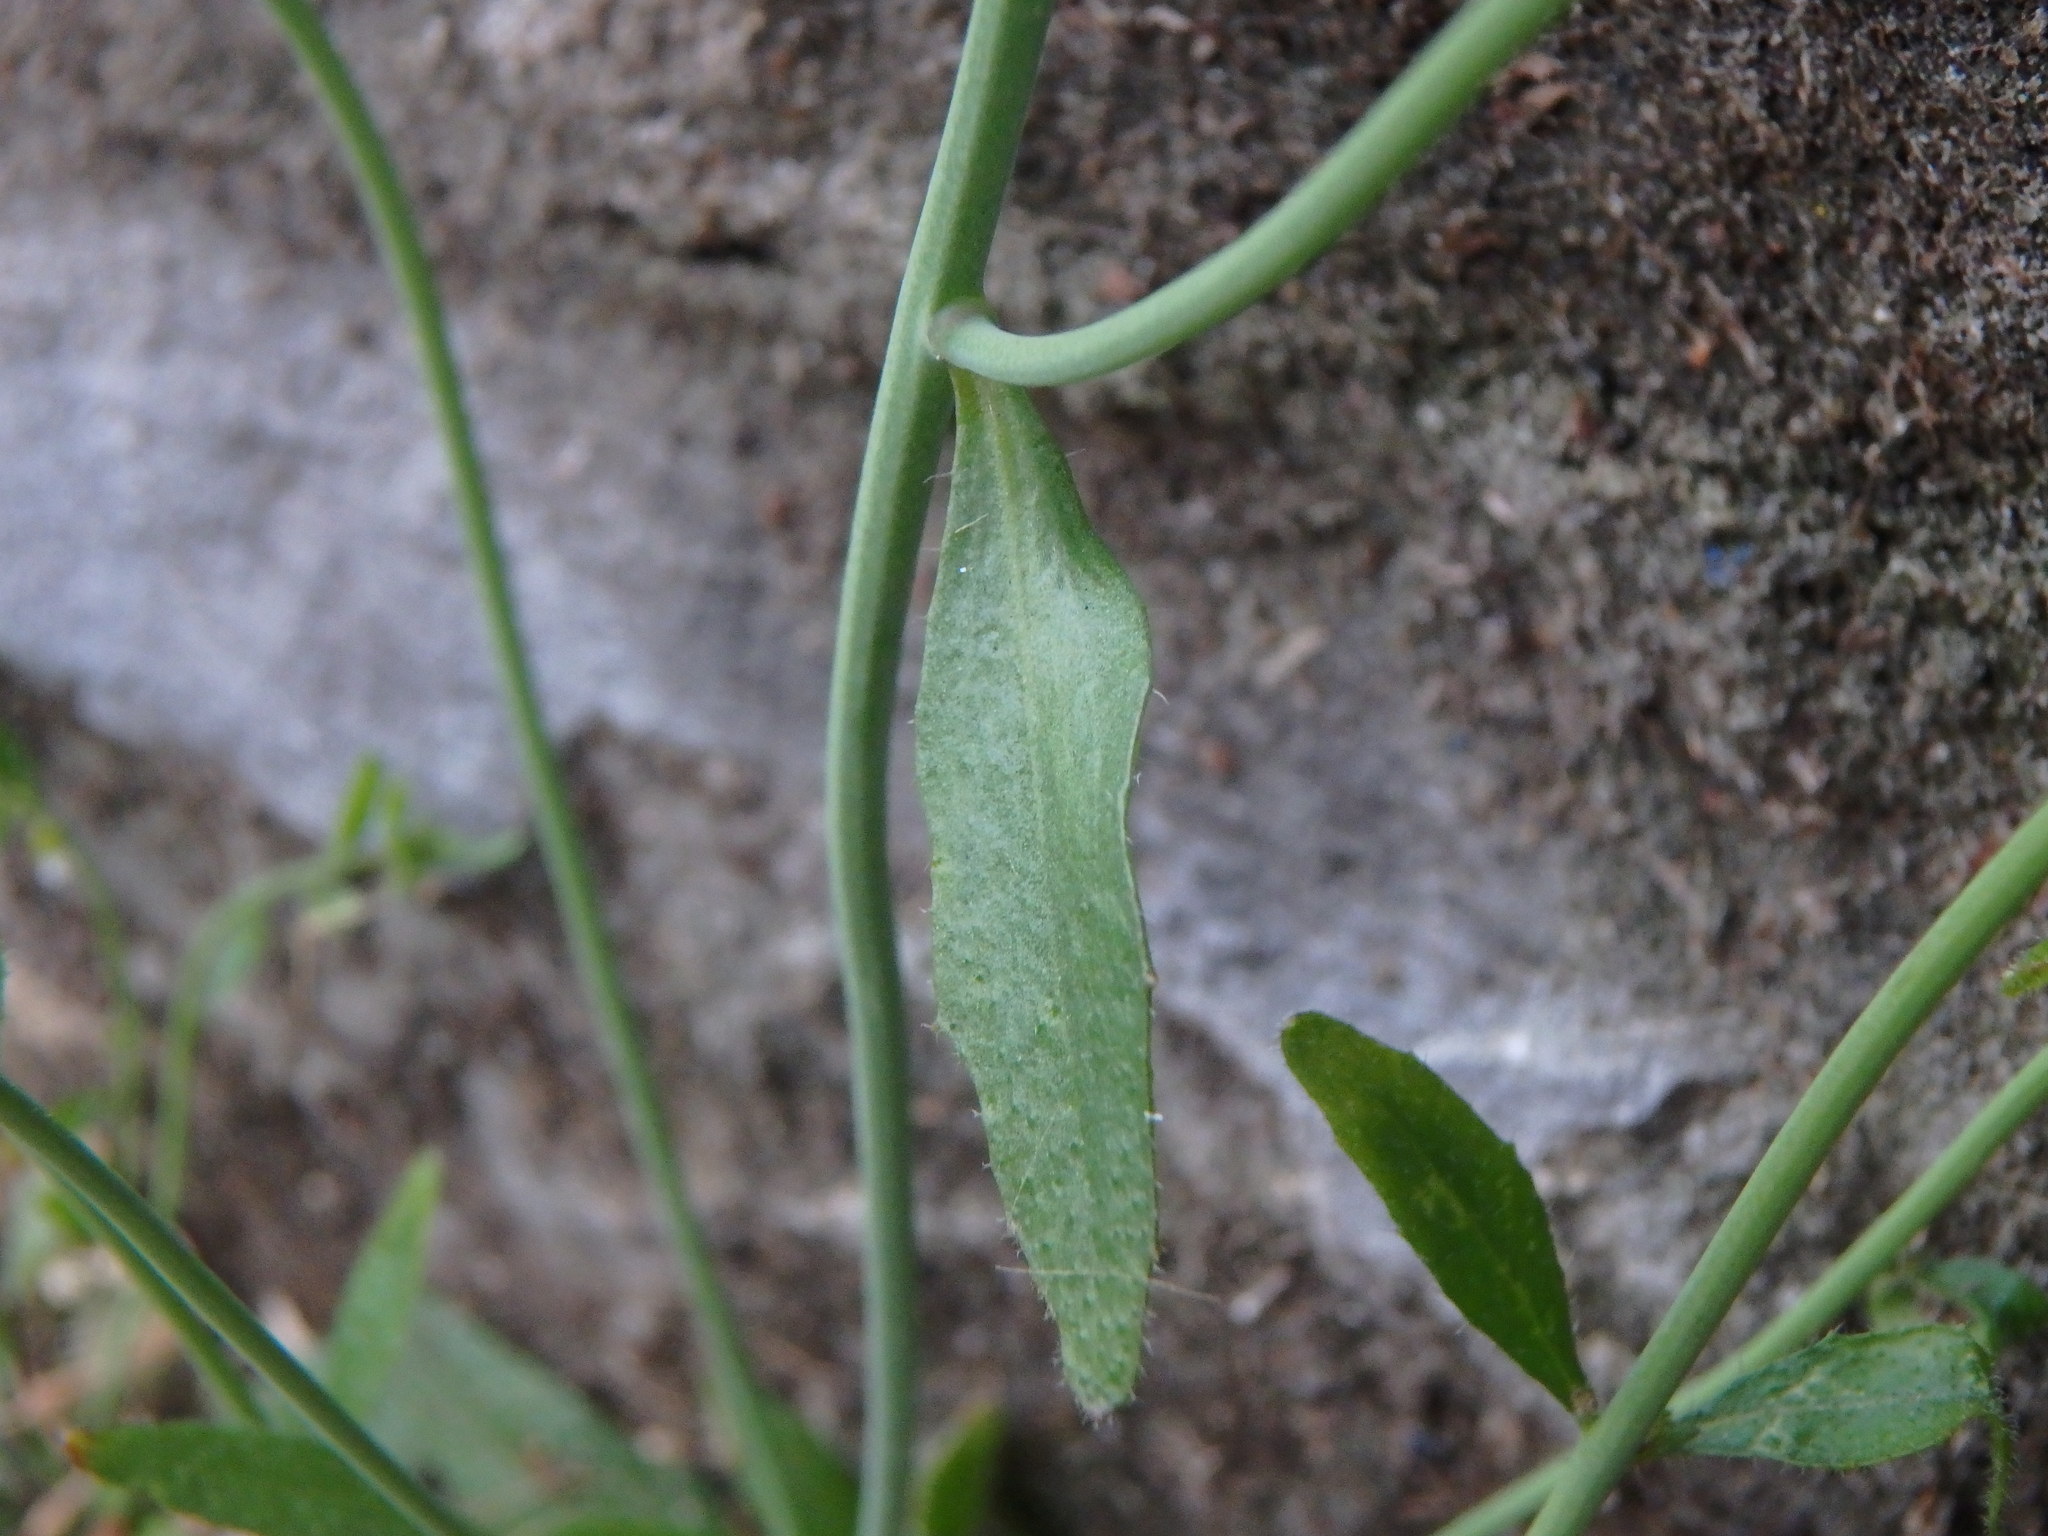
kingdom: Plantae
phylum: Tracheophyta
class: Magnoliopsida
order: Brassicales
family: Brassicaceae
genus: Arabidopsis
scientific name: Arabidopsis thaliana
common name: Thale cress
